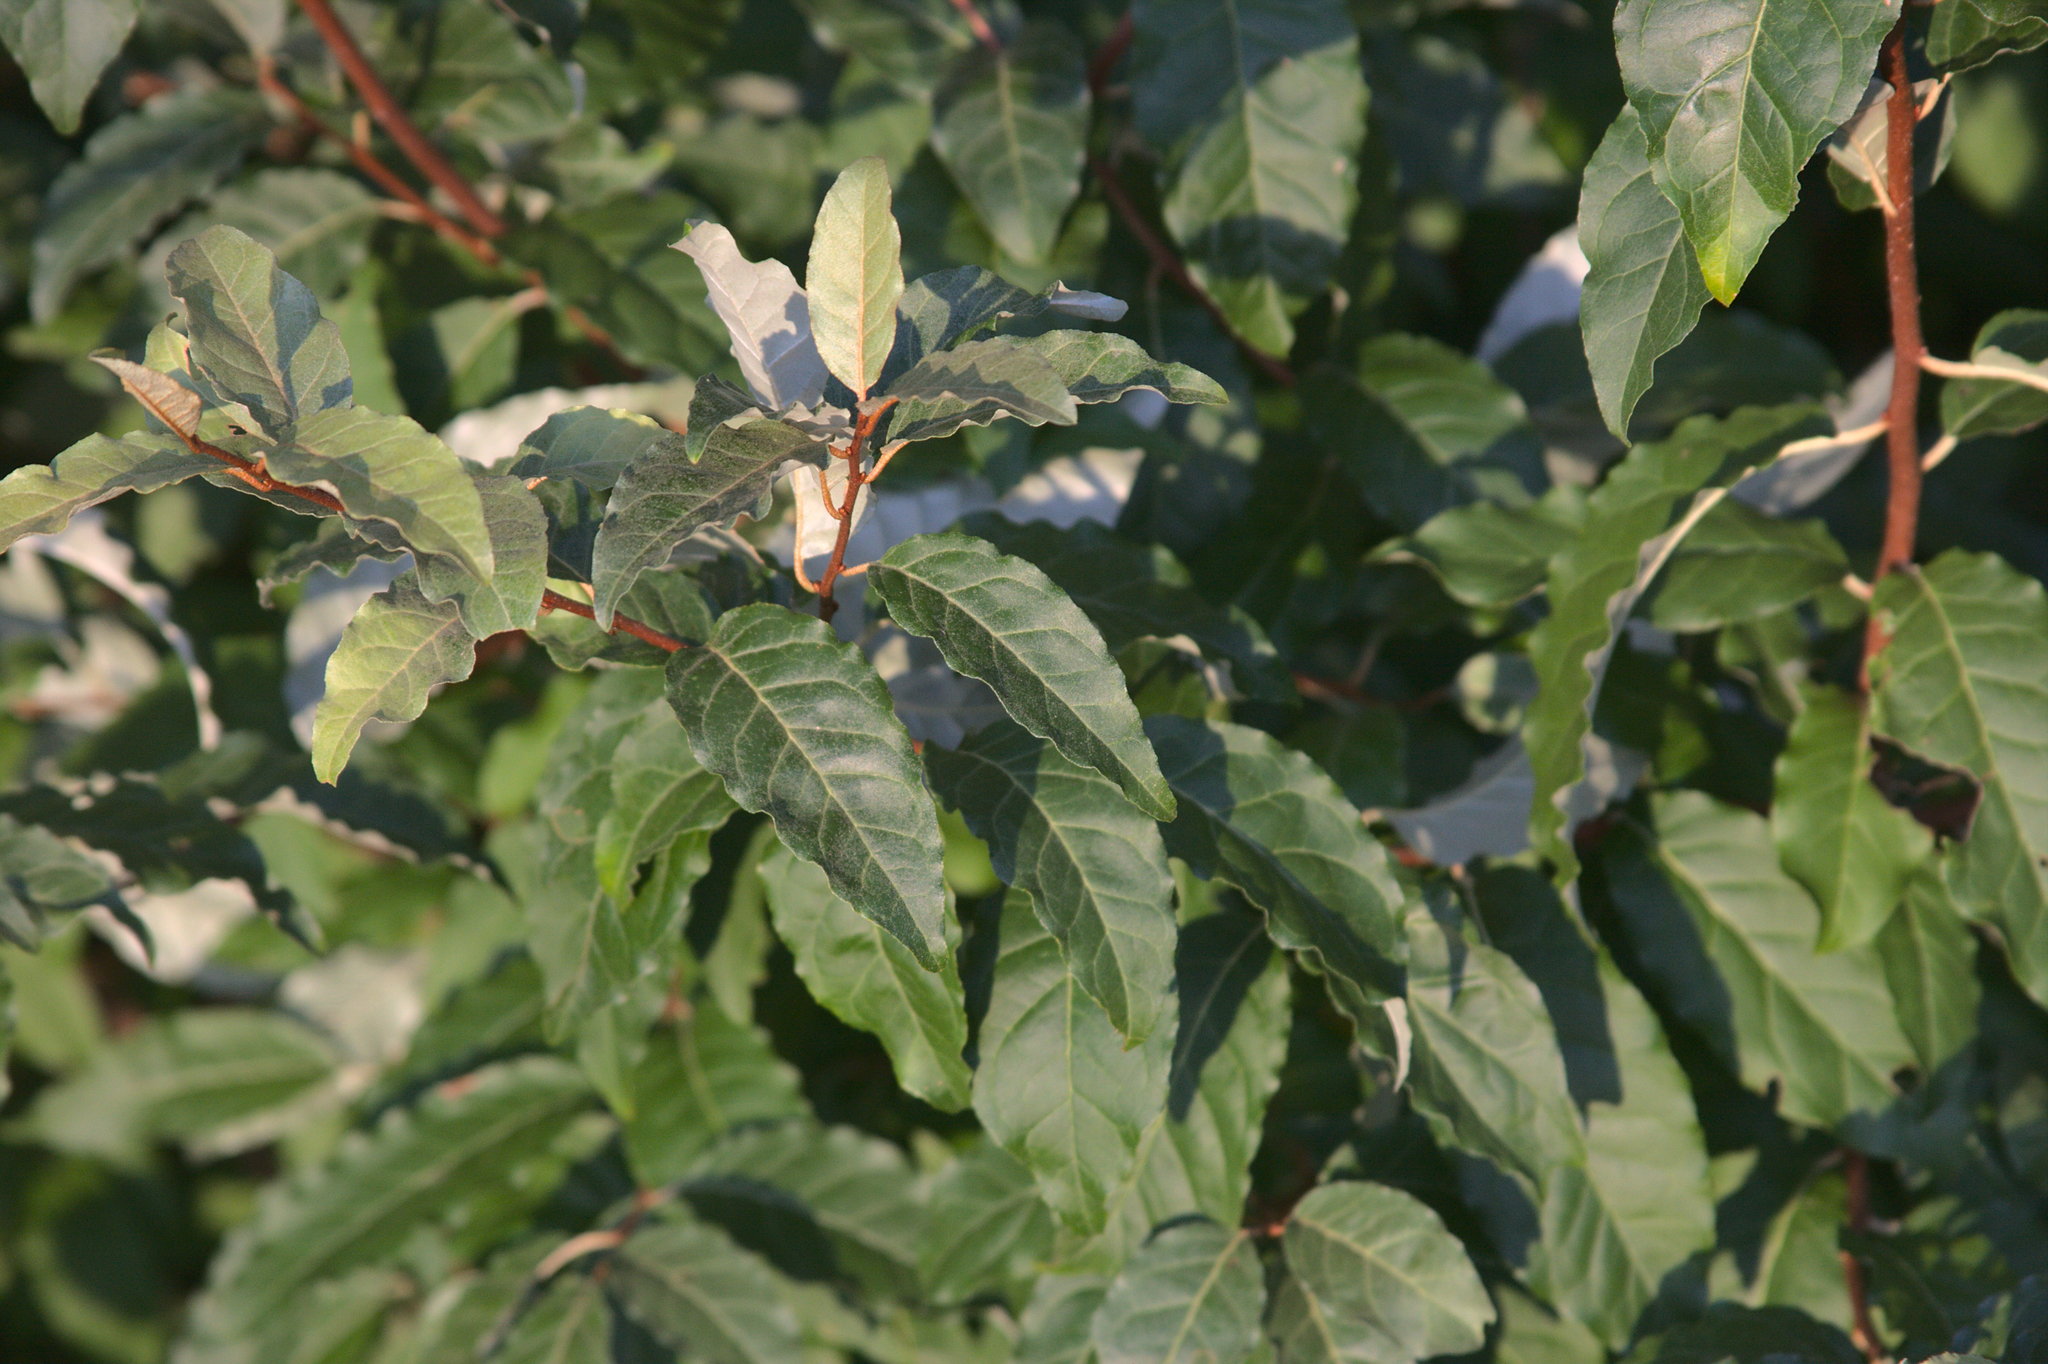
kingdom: Plantae
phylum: Tracheophyta
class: Magnoliopsida
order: Rosales
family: Elaeagnaceae
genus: Elaeagnus
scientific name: Elaeagnus umbellata
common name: Autumn olive
